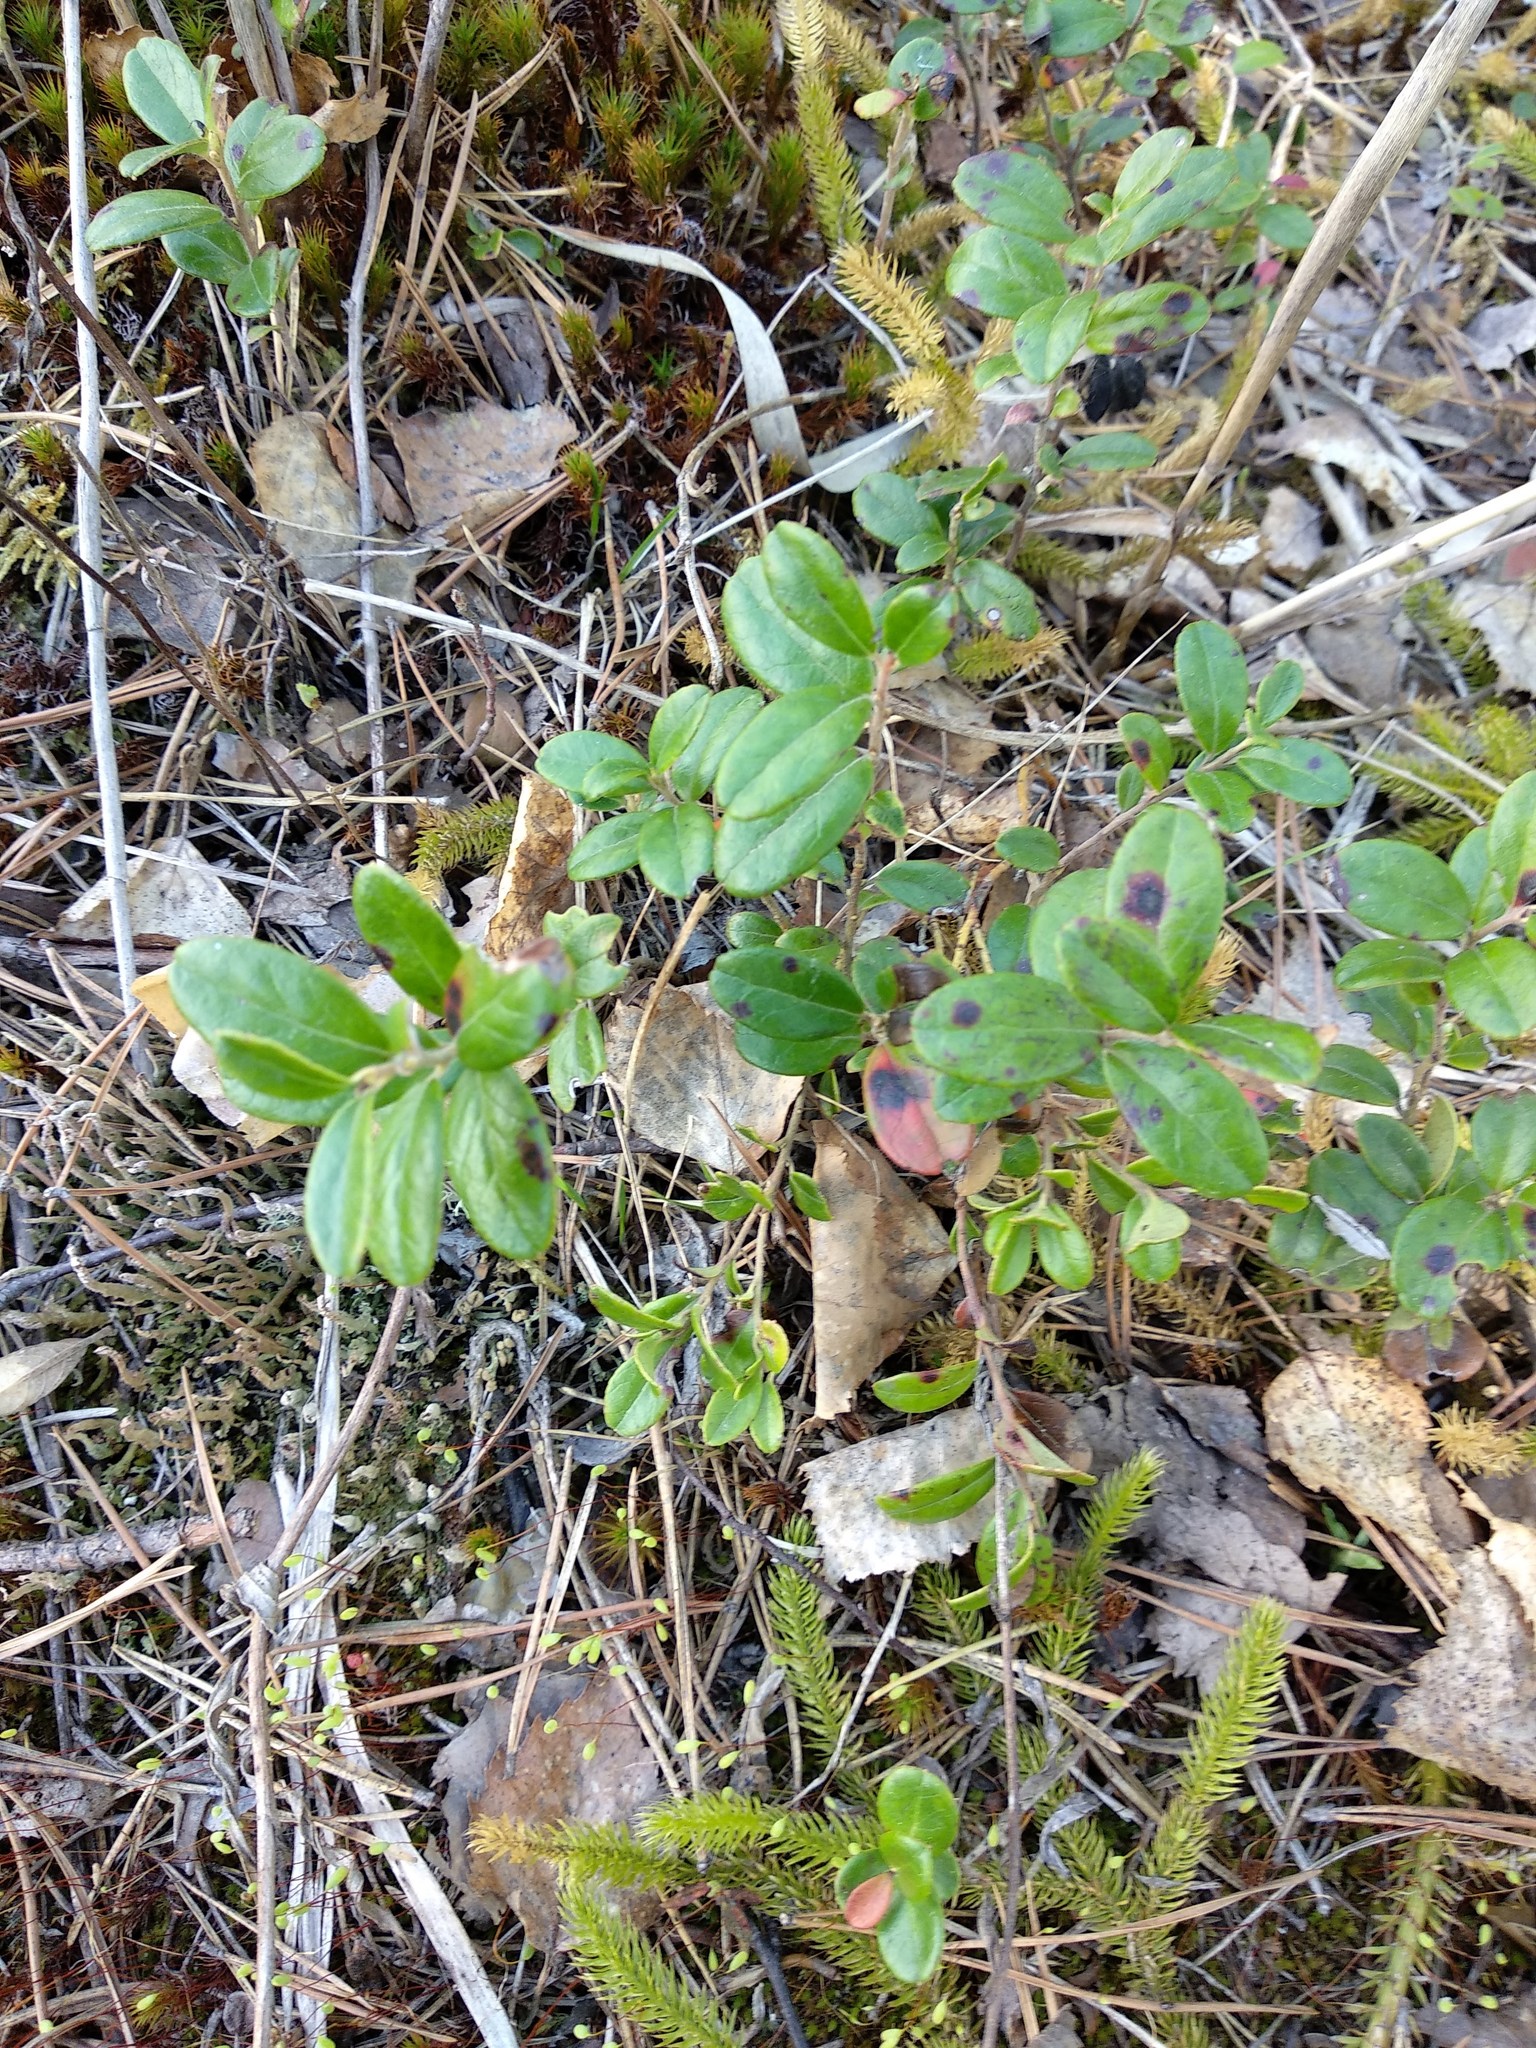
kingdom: Plantae
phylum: Tracheophyta
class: Magnoliopsida
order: Ericales
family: Ericaceae
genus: Vaccinium
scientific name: Vaccinium vitis-idaea
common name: Cowberry
